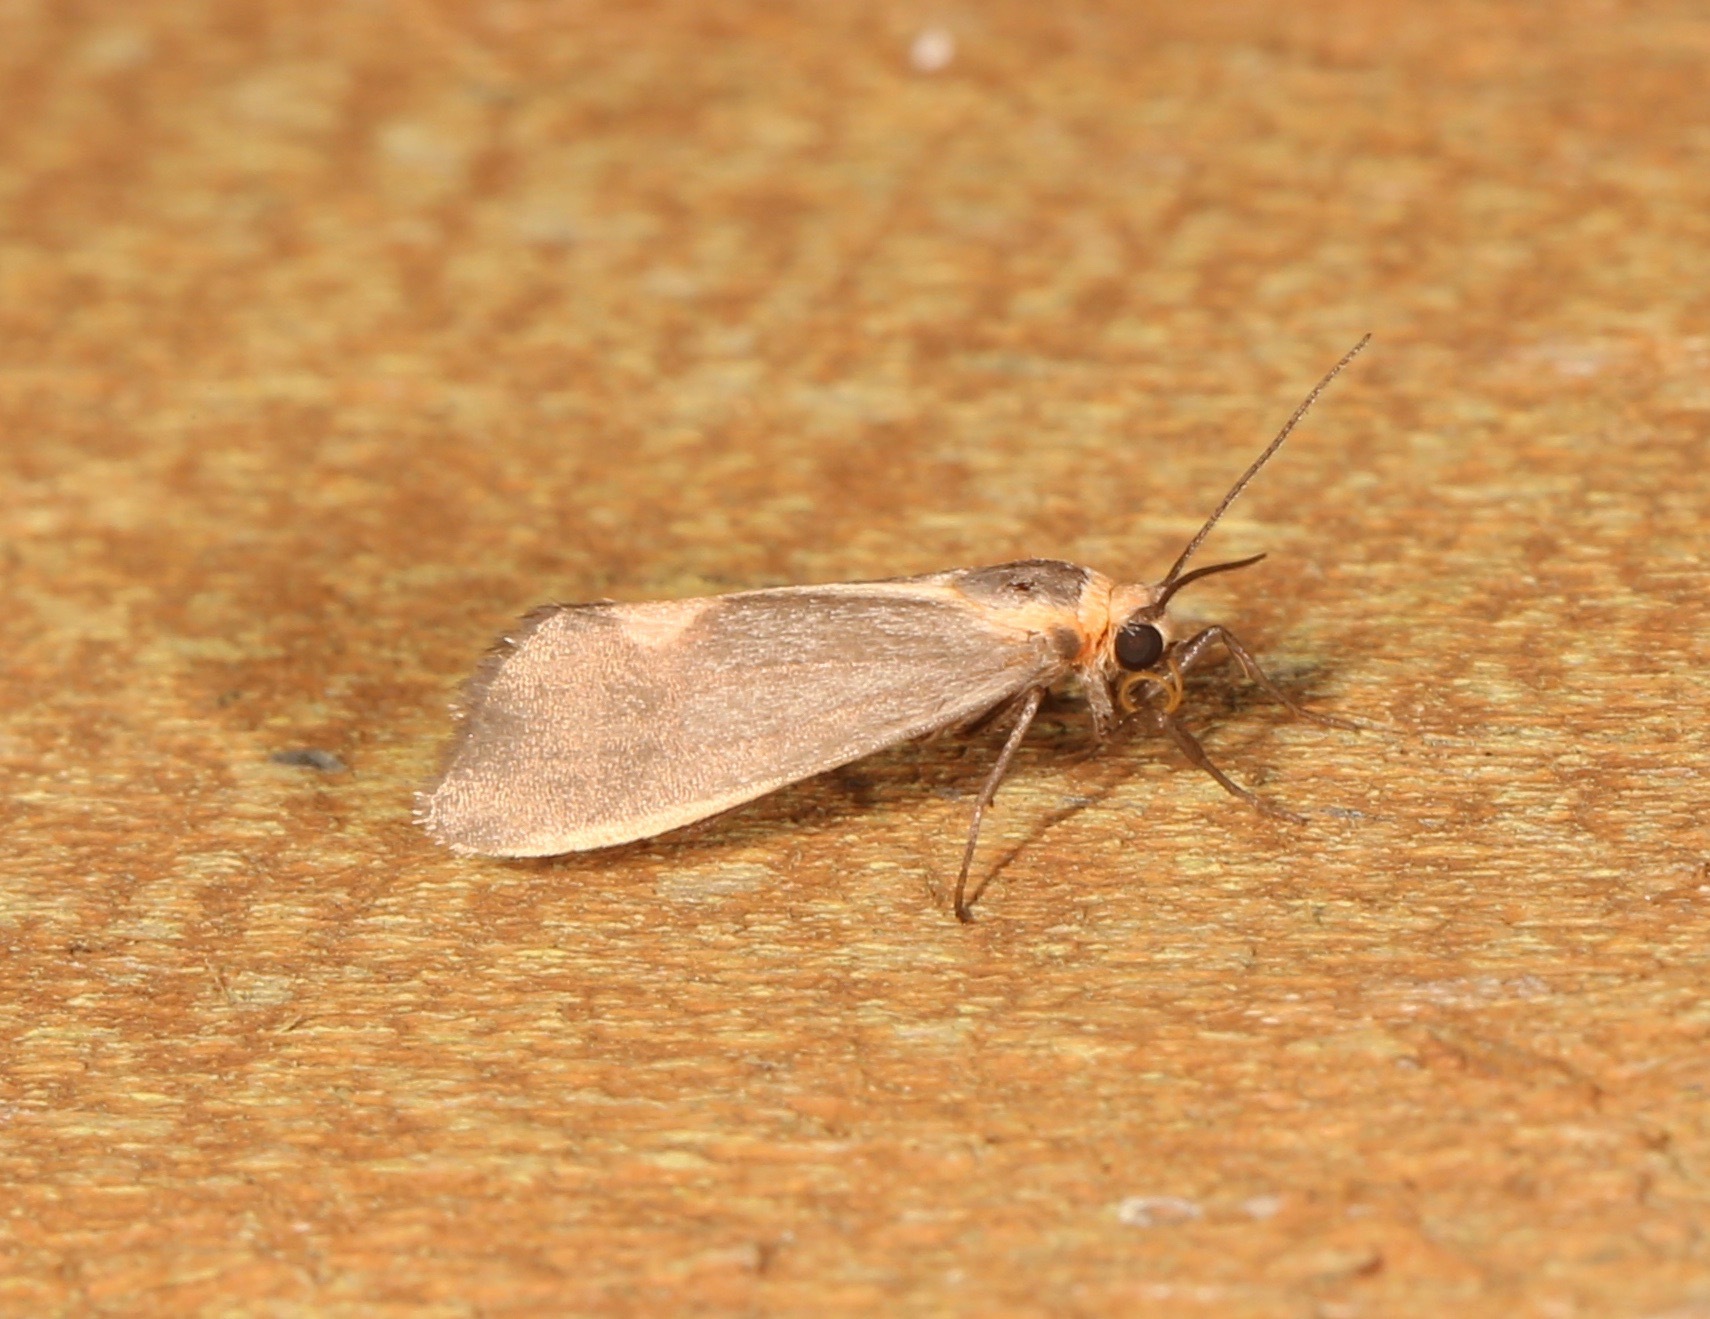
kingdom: Animalia
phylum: Arthropoda
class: Insecta
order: Lepidoptera
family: Erebidae
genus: Cisthene
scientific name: Cisthene plumbea
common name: Lead colored lichen moth
